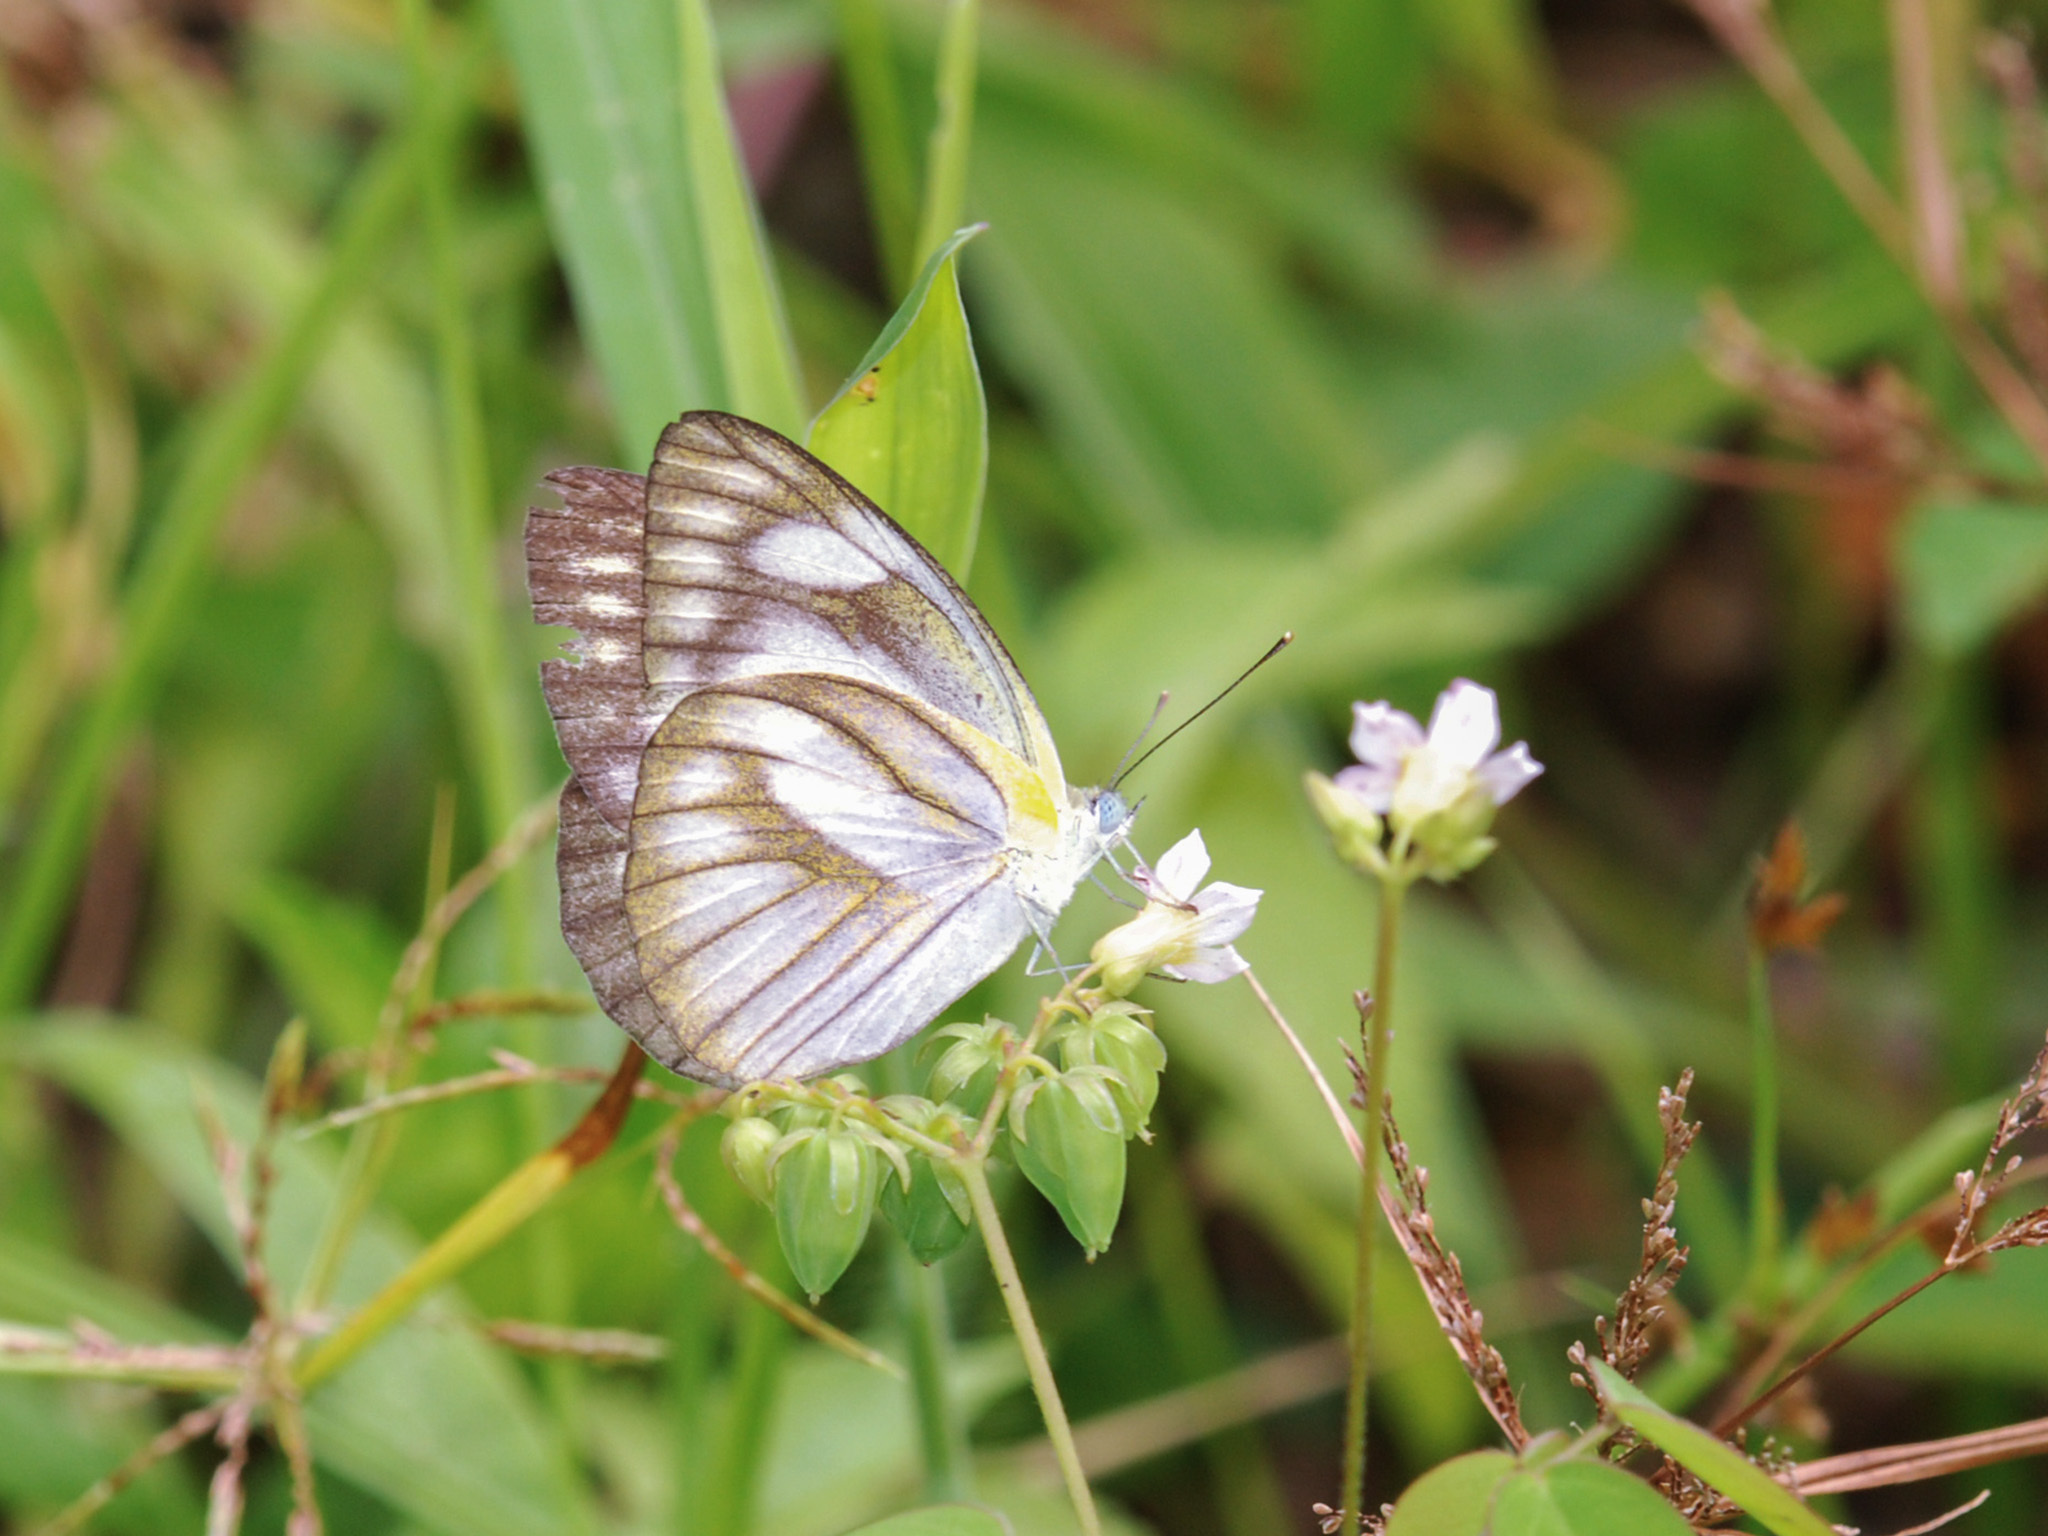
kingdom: Animalia
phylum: Arthropoda
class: Insecta
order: Lepidoptera
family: Pieridae
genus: Appias
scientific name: Appias libythea
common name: Striped albatross
